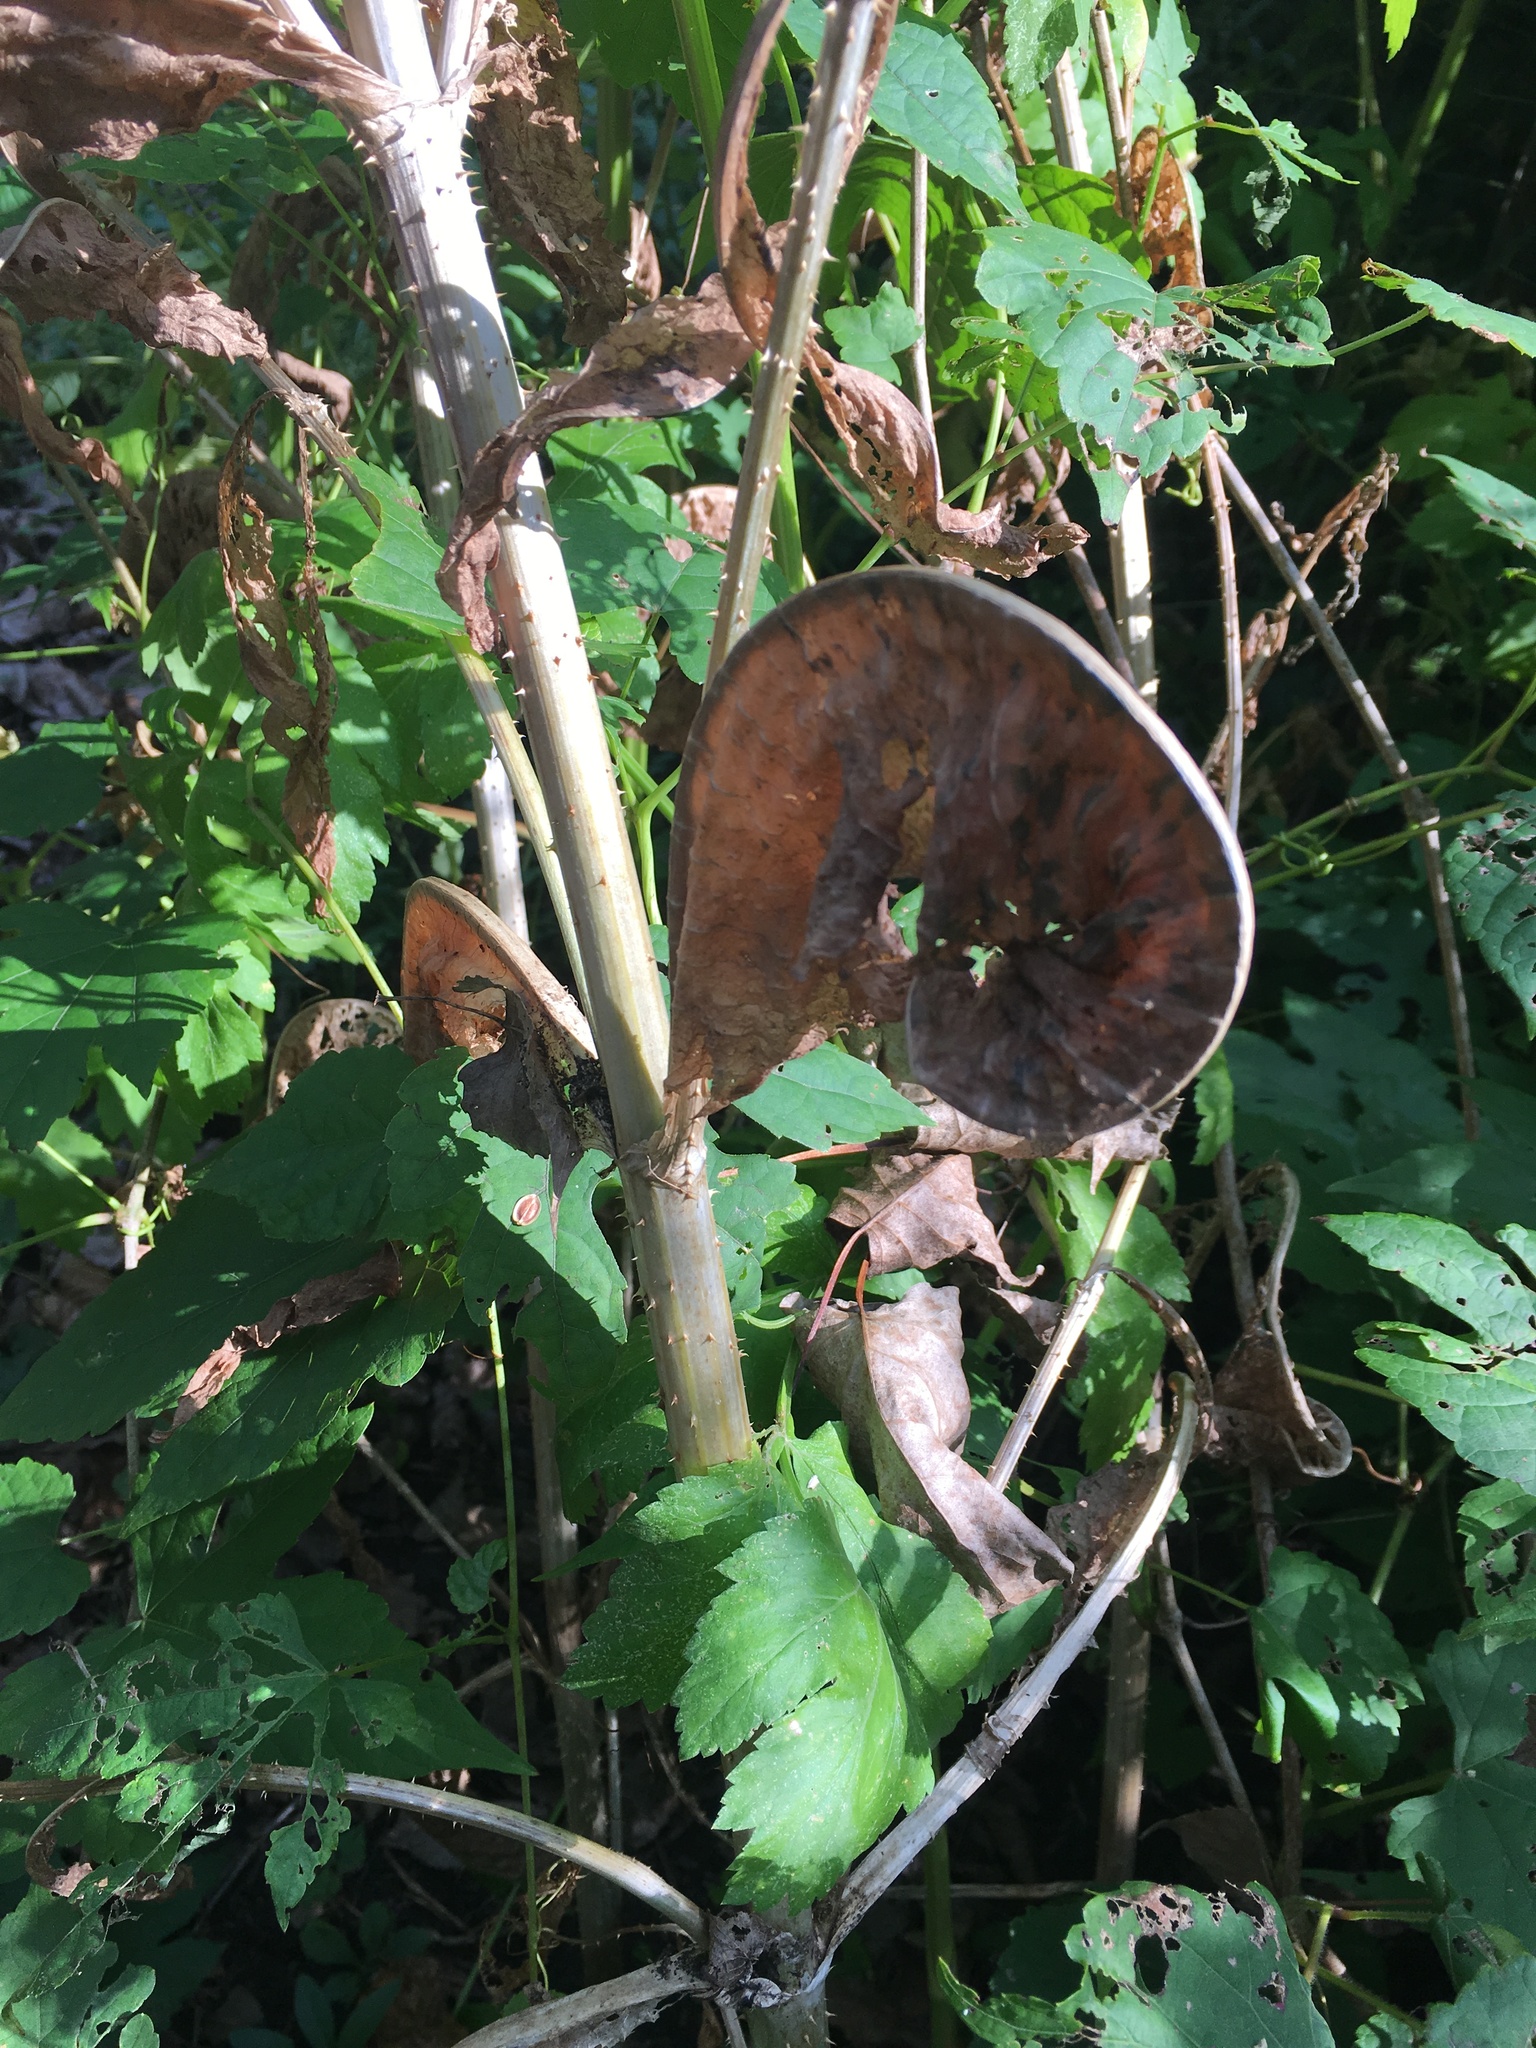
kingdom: Plantae
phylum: Tracheophyta
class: Magnoliopsida
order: Dipsacales
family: Caprifoliaceae
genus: Dipsacus
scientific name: Dipsacus fullonum
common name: Teasel
